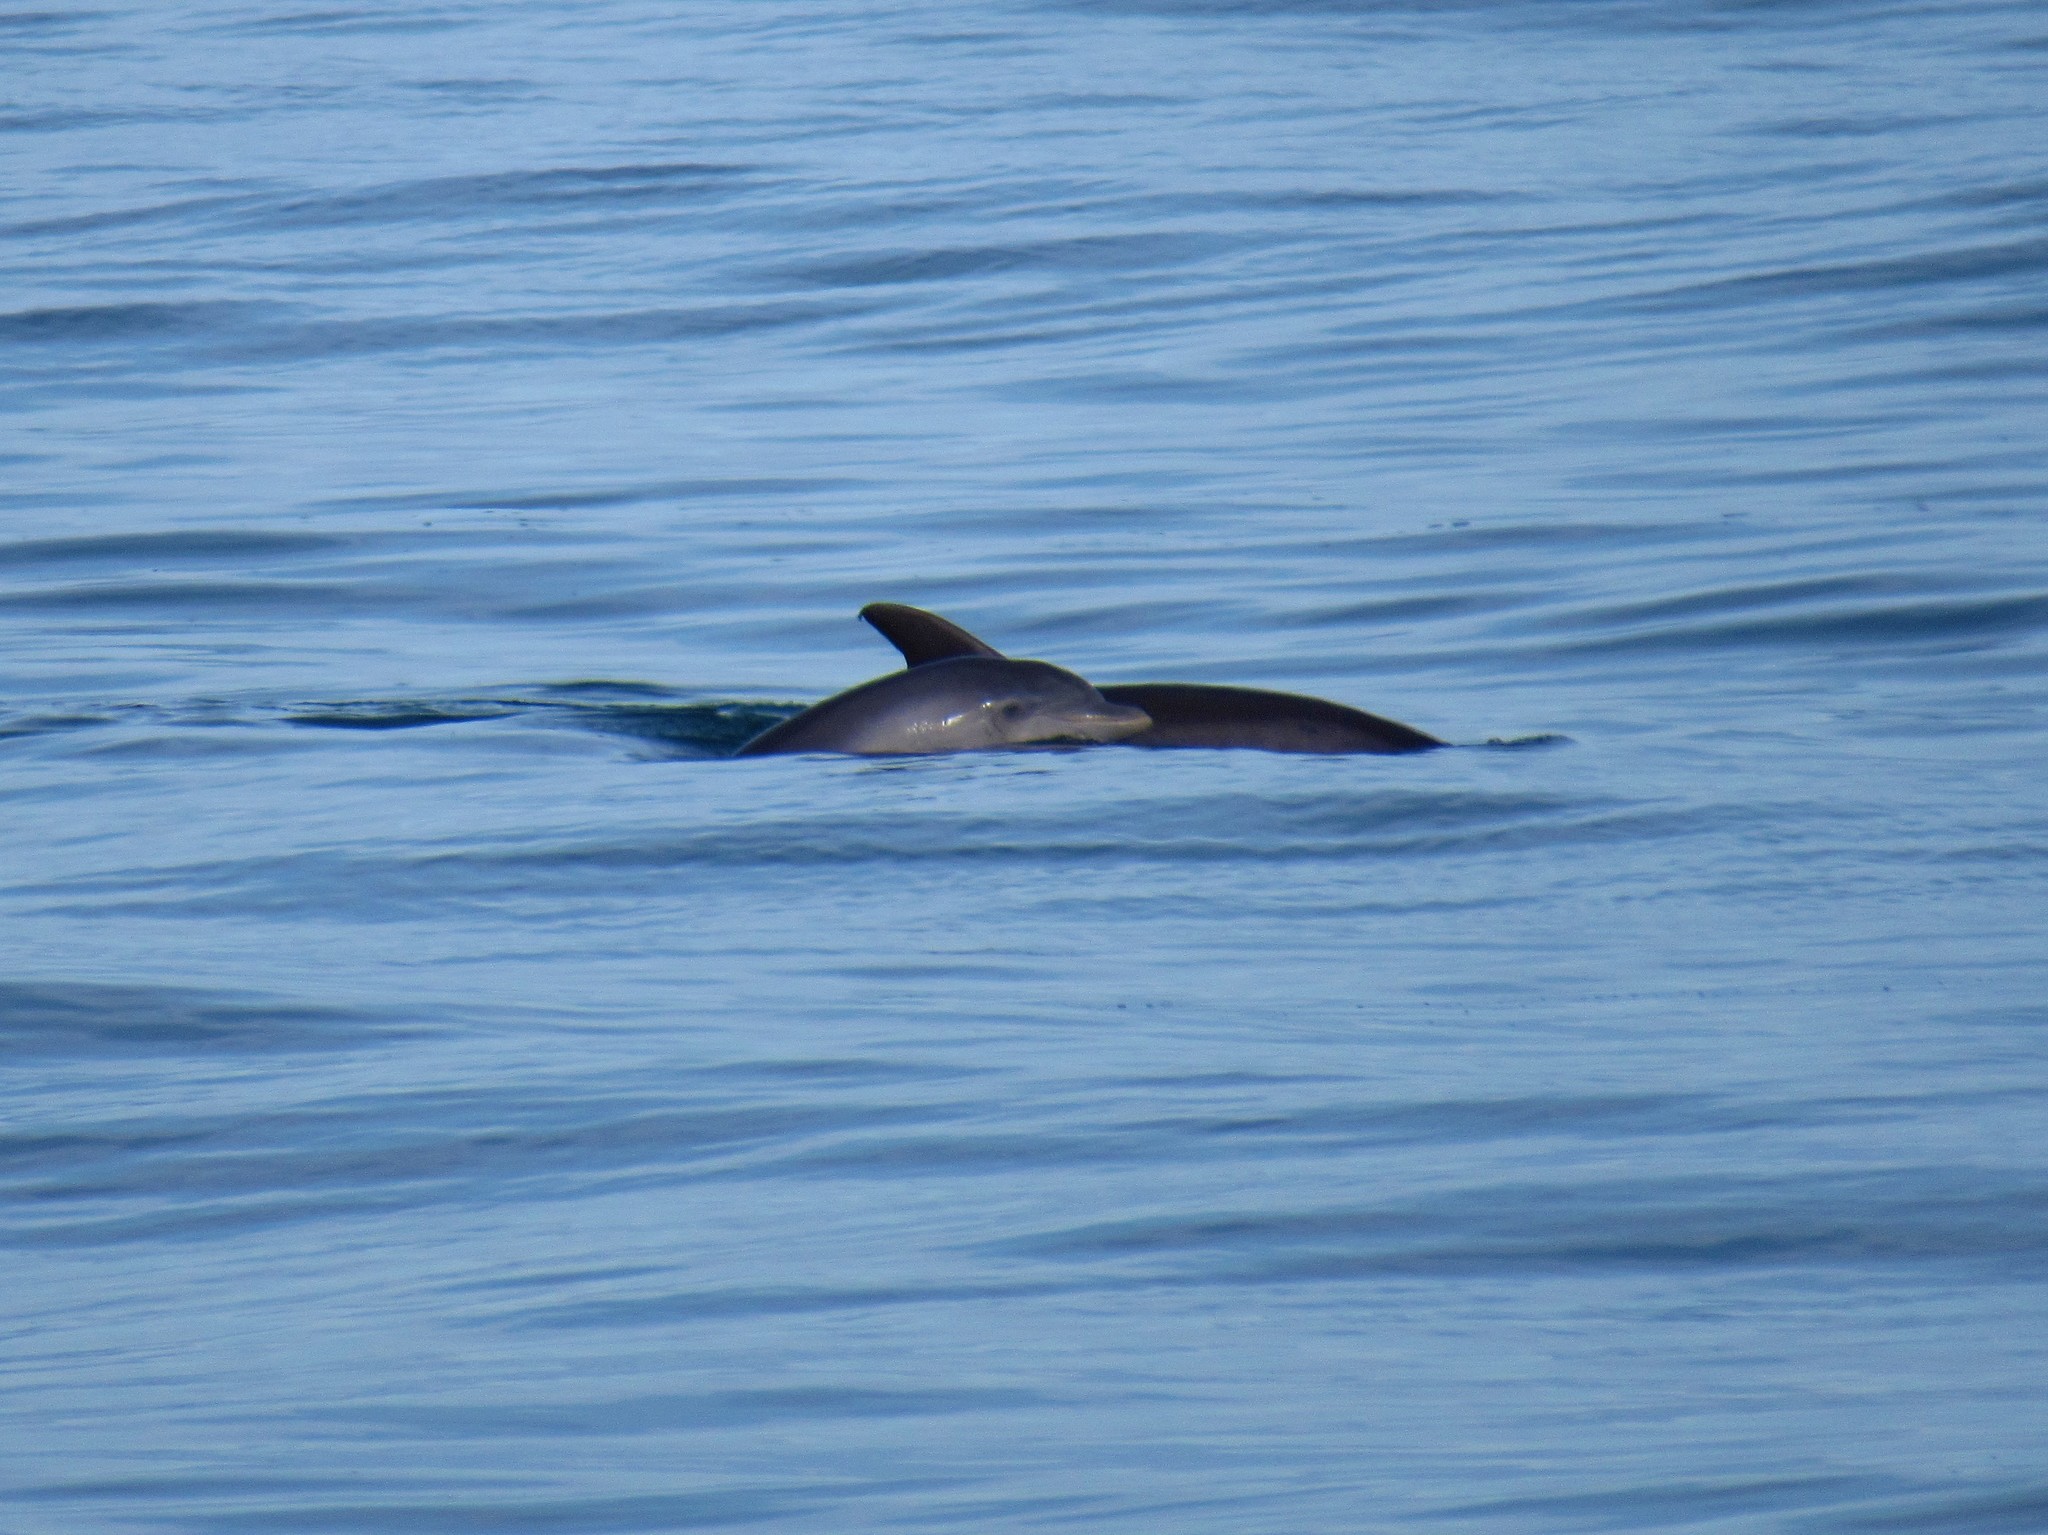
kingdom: Animalia
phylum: Chordata
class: Mammalia
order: Cetacea
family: Delphinidae
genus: Tursiops
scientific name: Tursiops truncatus
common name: Bottlenose dolphin
